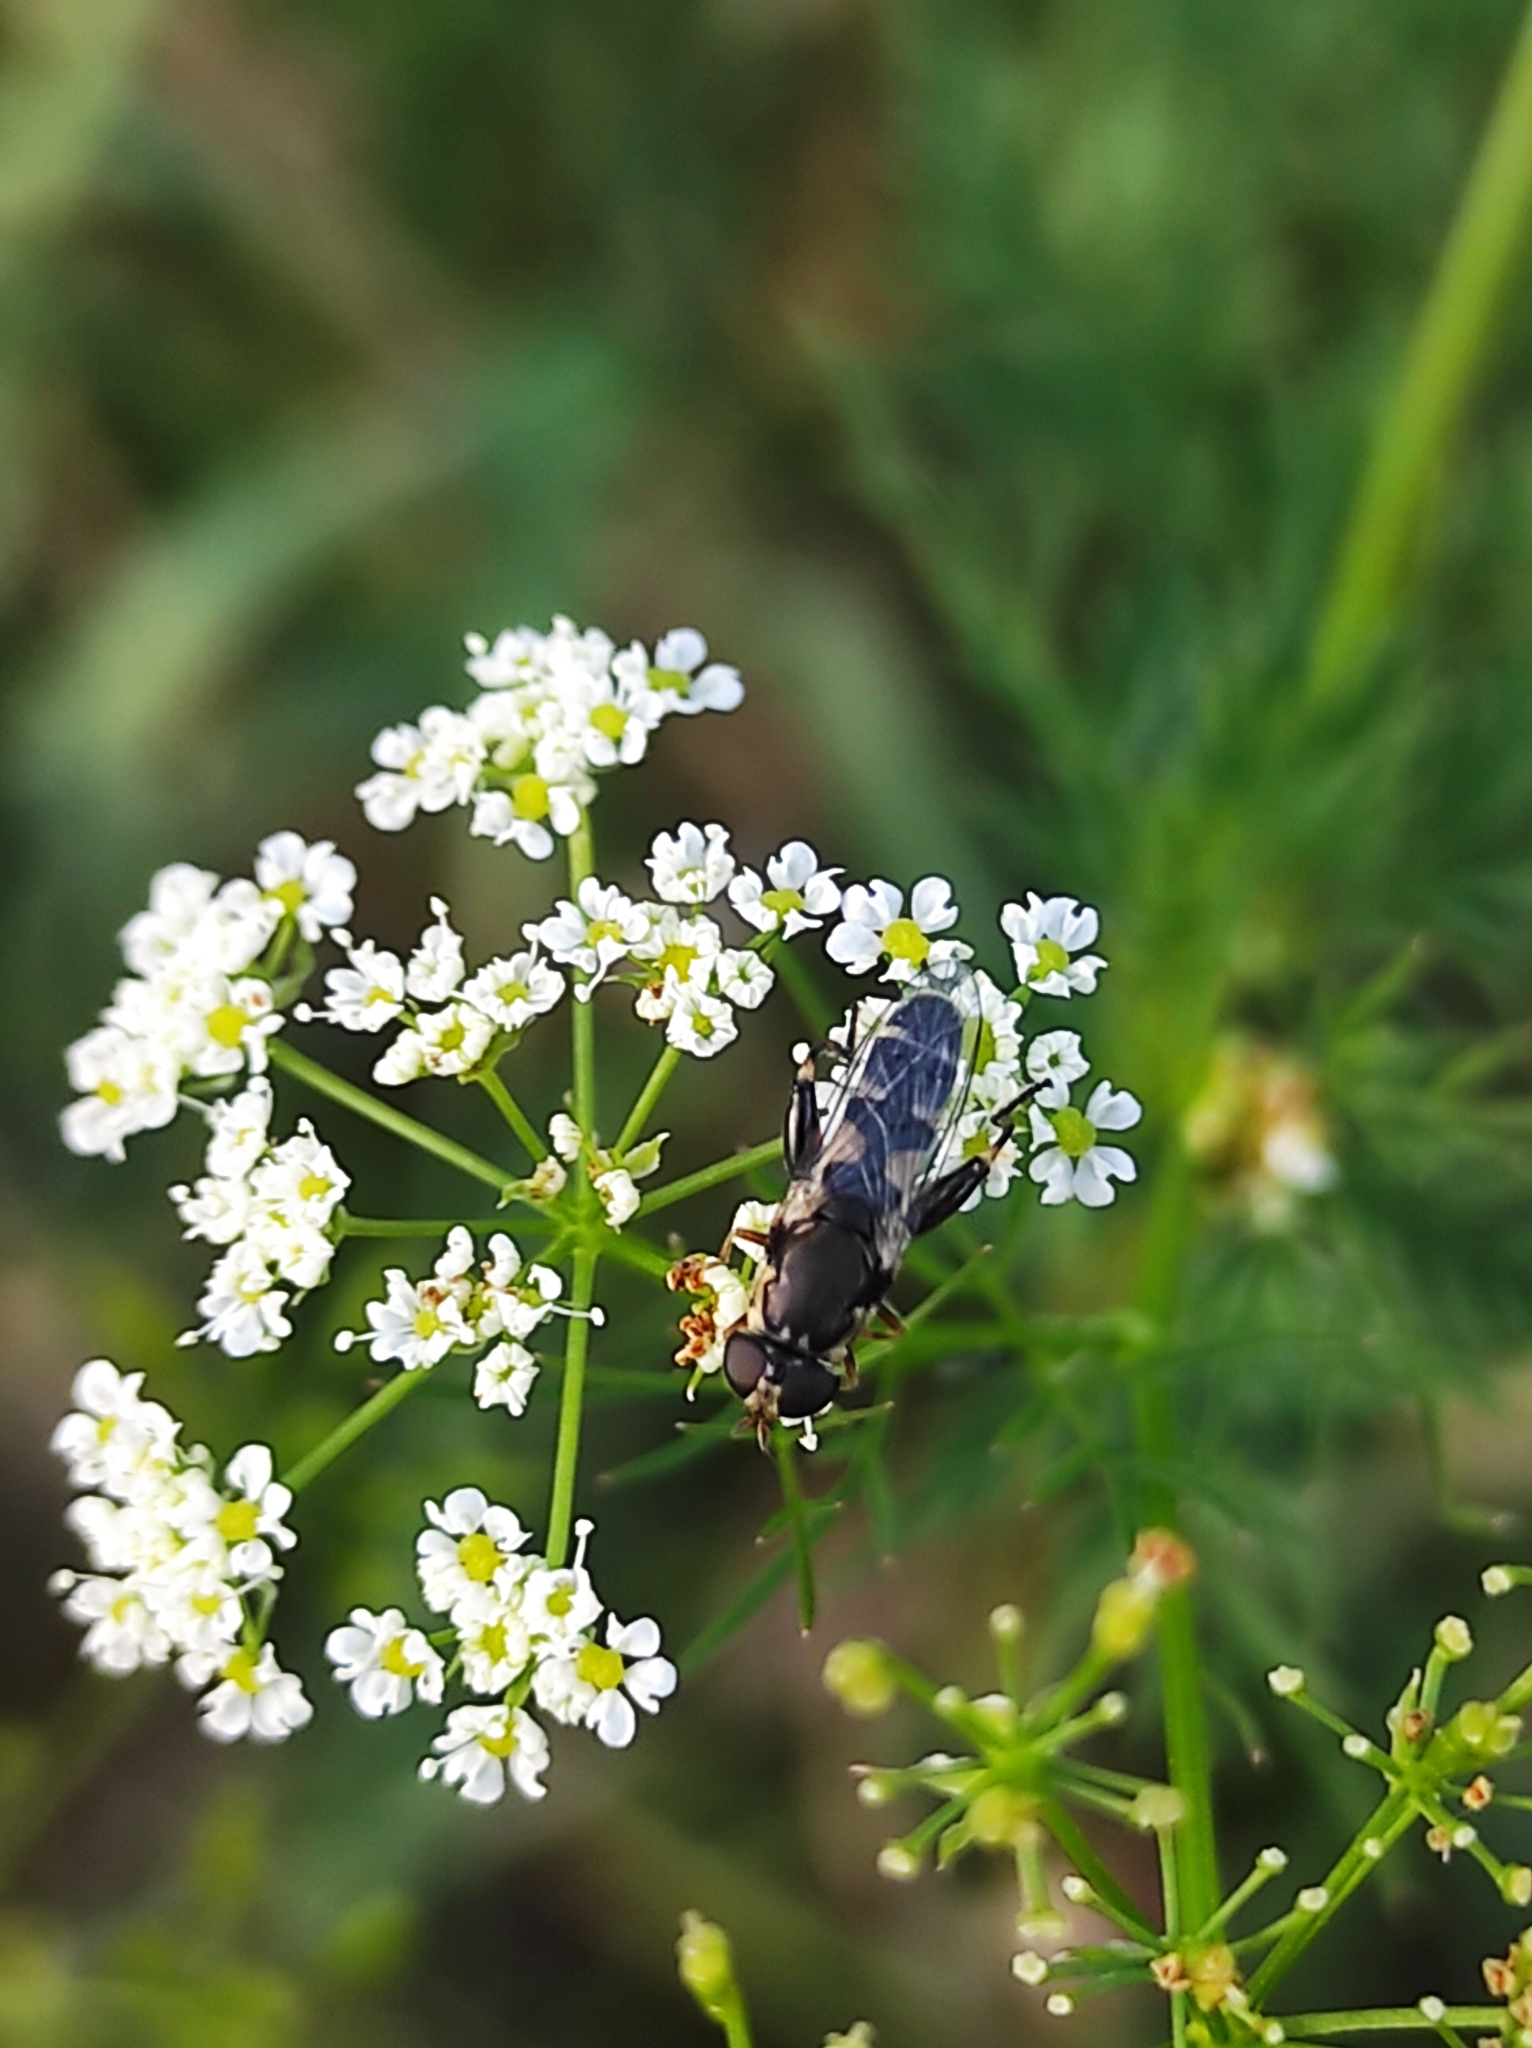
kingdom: Animalia
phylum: Arthropoda
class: Insecta
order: Diptera
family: Syrphidae
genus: Syritta
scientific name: Syritta pipiens
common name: Hover fly
